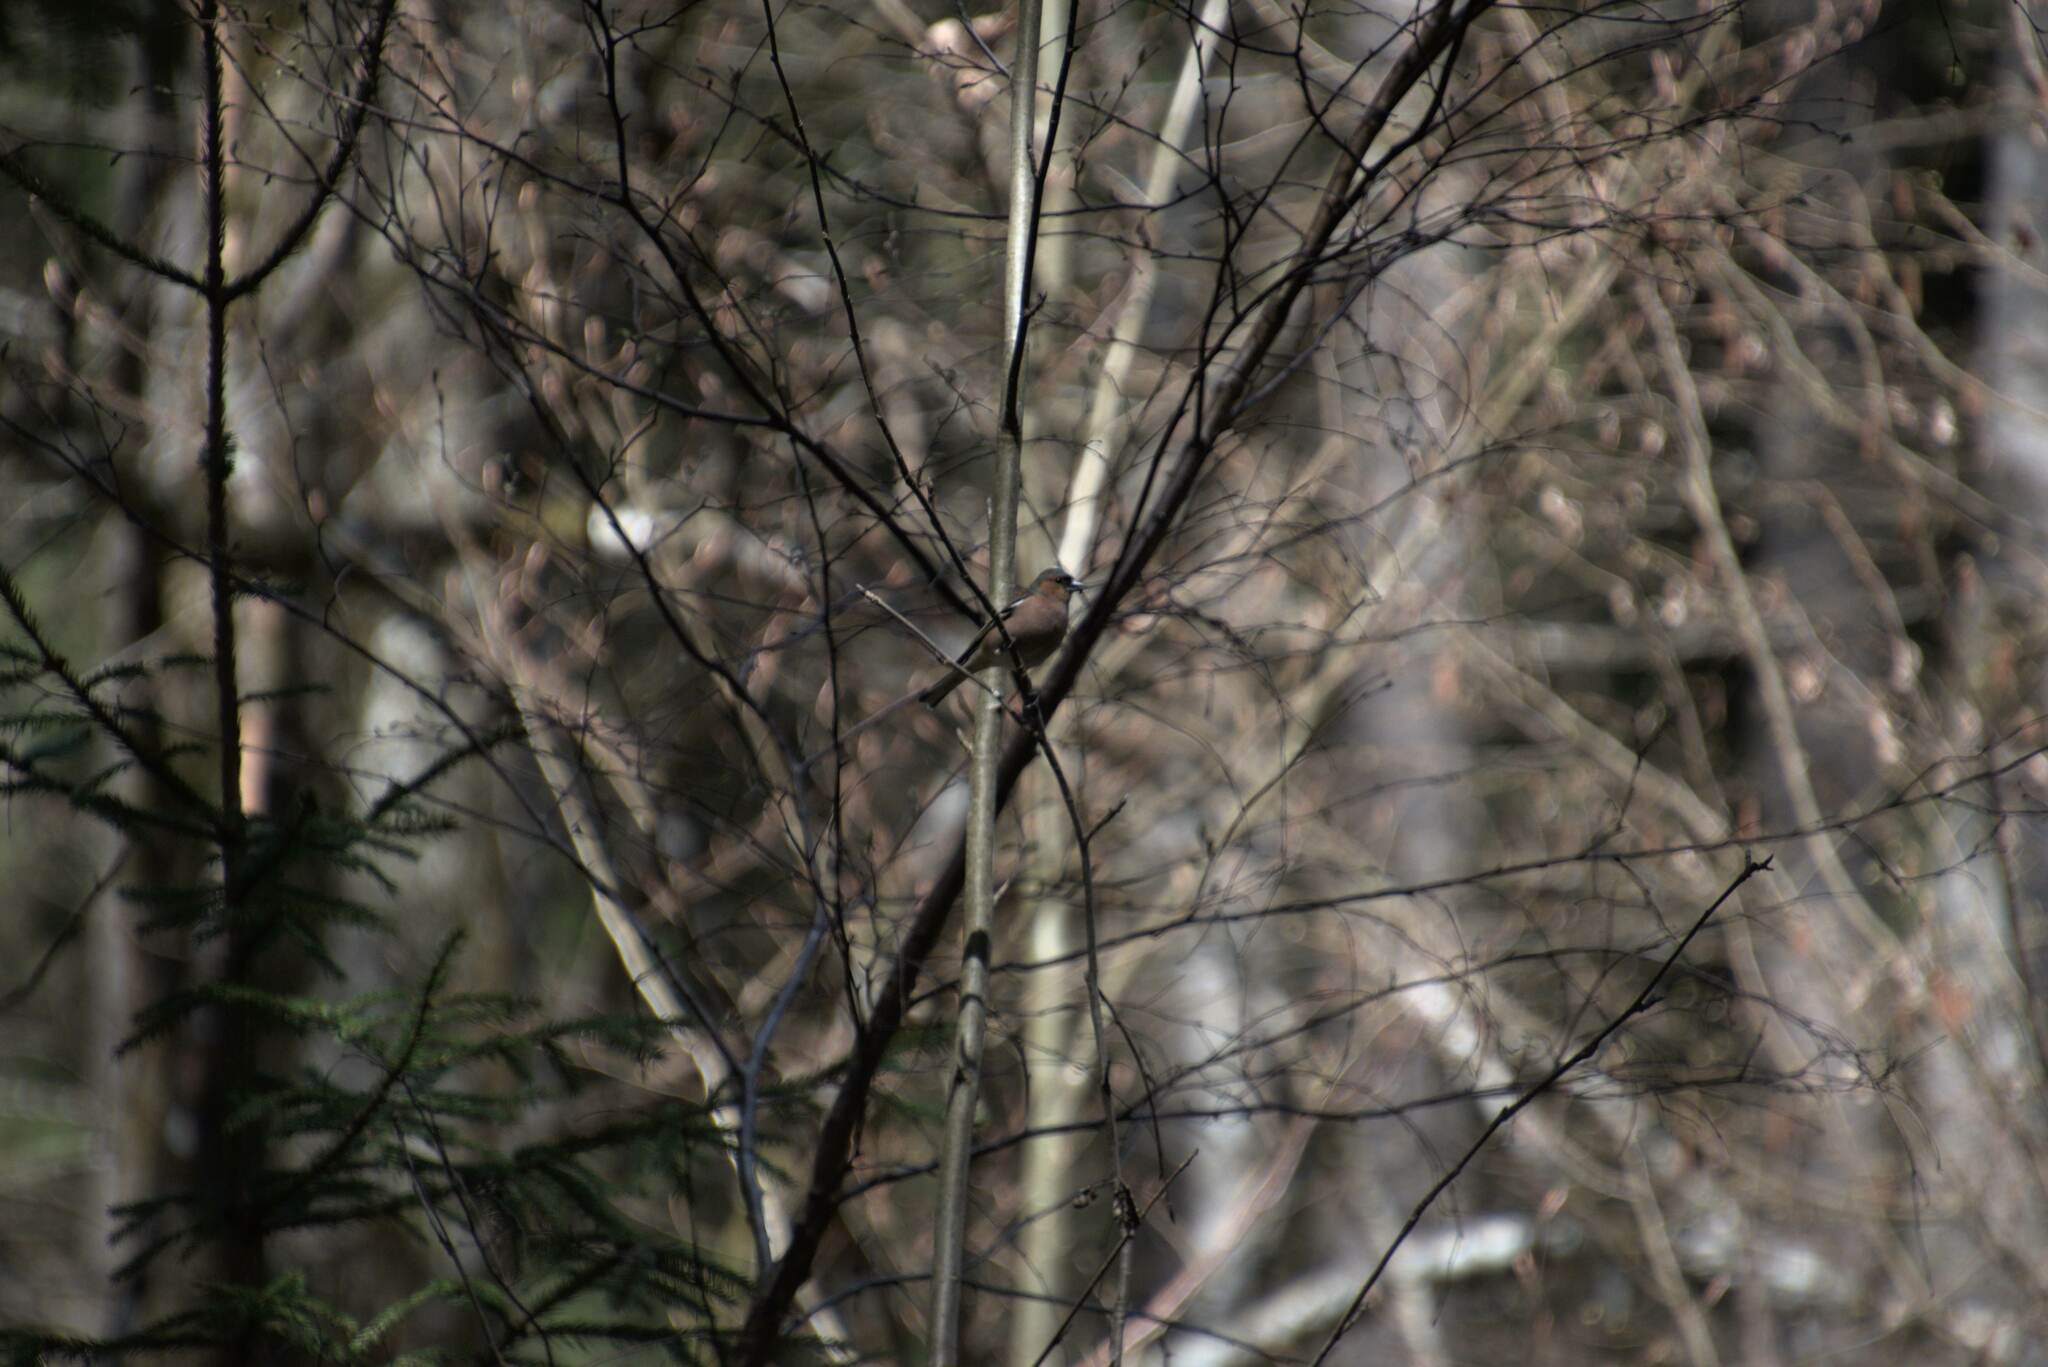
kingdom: Animalia
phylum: Chordata
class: Aves
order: Passeriformes
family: Fringillidae
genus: Fringilla
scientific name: Fringilla coelebs
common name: Common chaffinch
